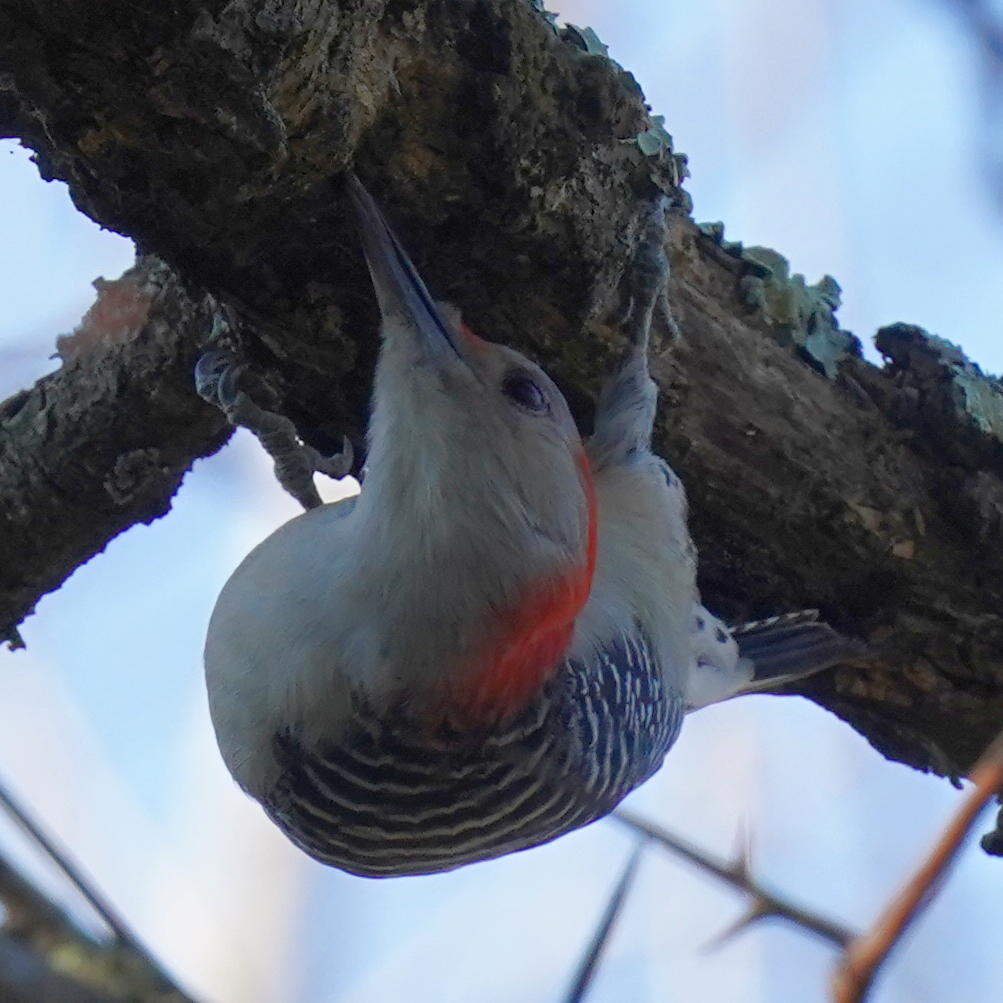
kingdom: Animalia
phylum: Chordata
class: Aves
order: Piciformes
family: Picidae
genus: Melanerpes
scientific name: Melanerpes carolinus
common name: Red-bellied woodpecker
